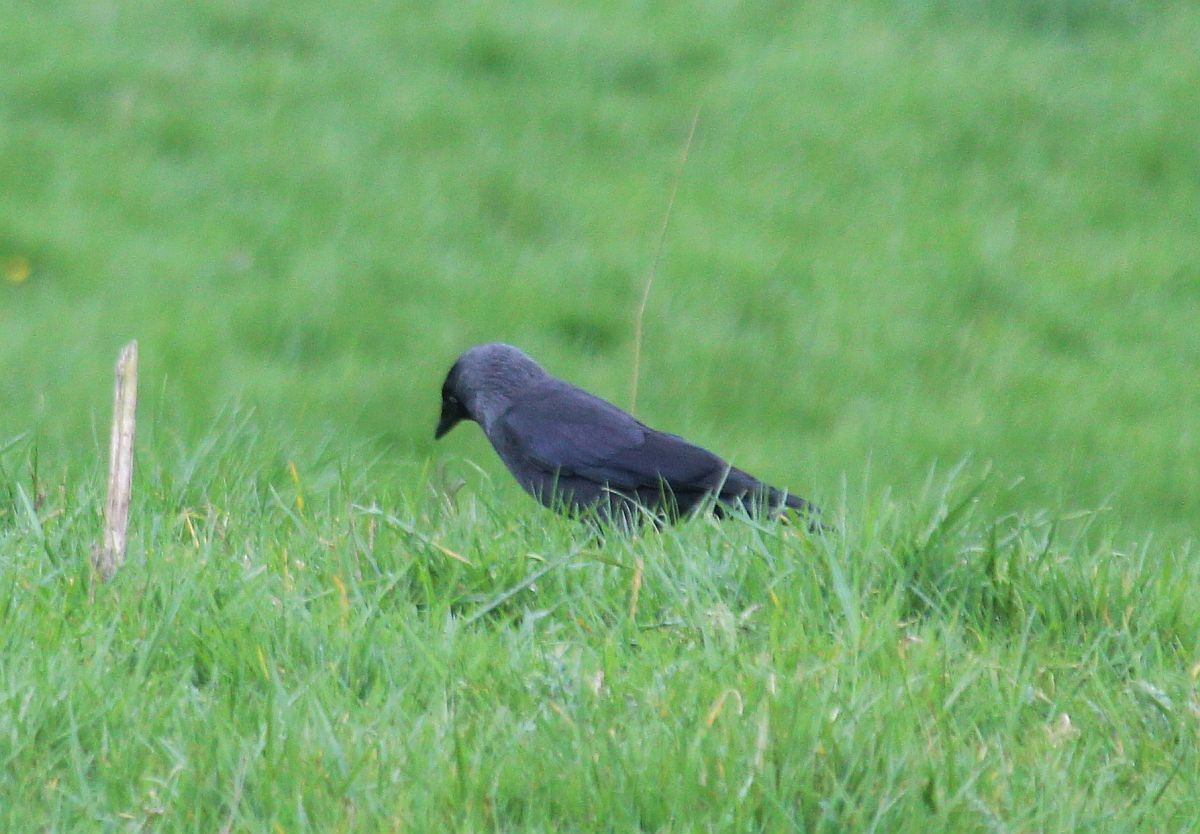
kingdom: Animalia
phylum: Chordata
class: Aves
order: Passeriformes
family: Corvidae
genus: Coloeus
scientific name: Coloeus monedula
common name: Western jackdaw
